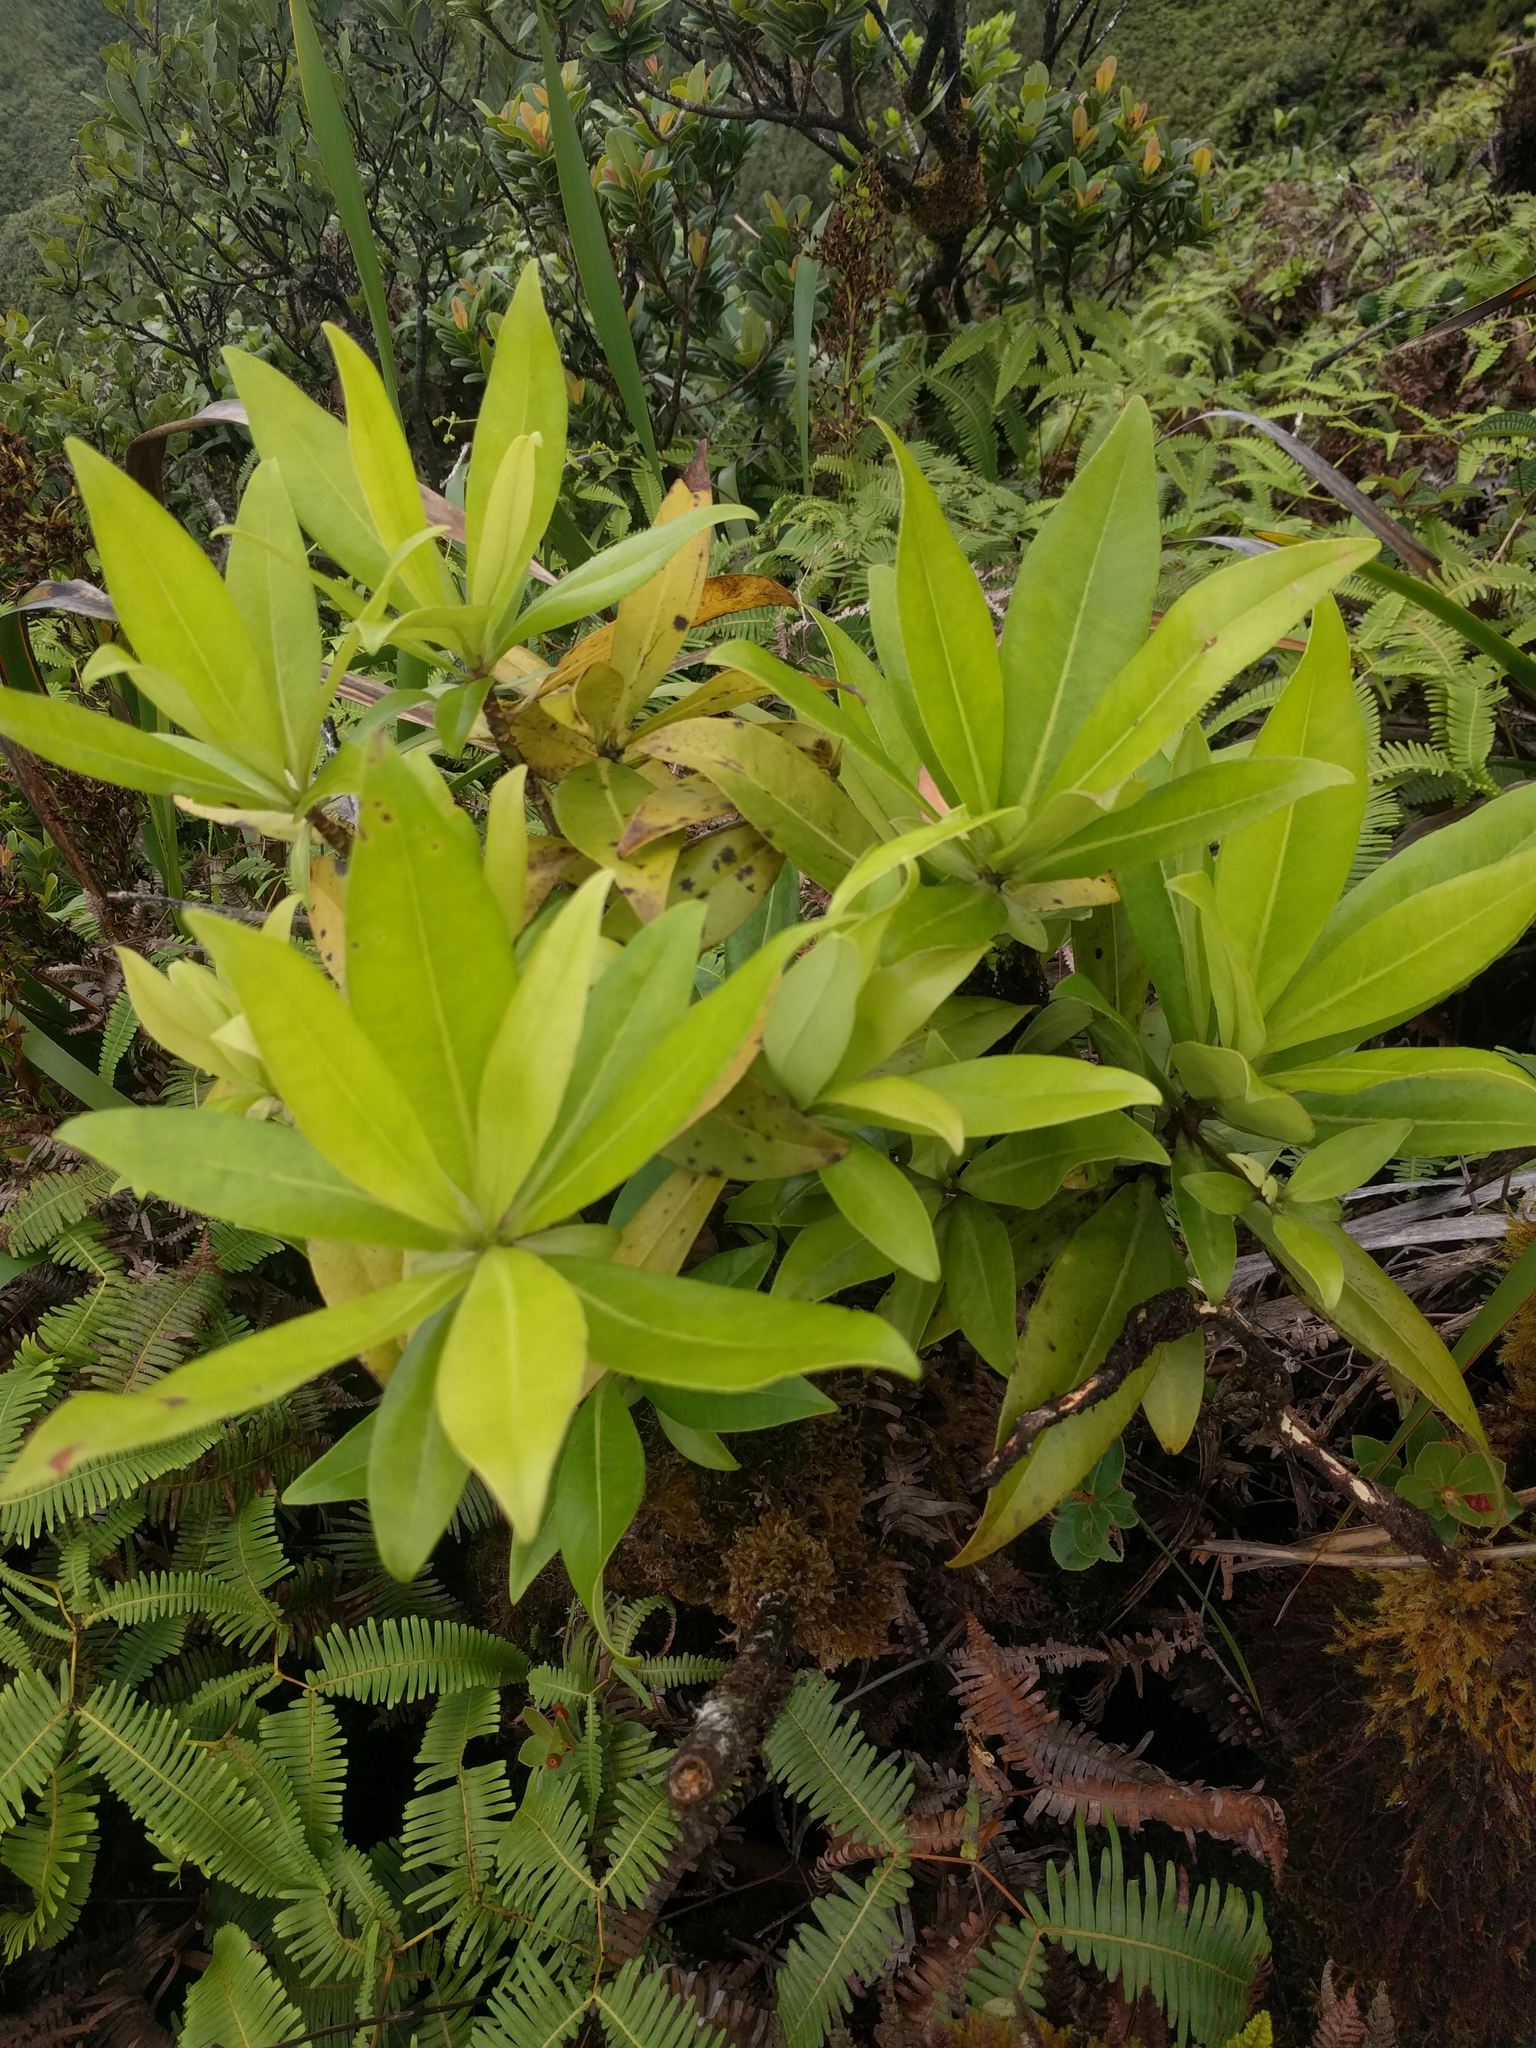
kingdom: Plantae
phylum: Tracheophyta
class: Magnoliopsida
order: Ericales
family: Primulaceae
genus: Myrsine
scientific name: Myrsine degeneri
